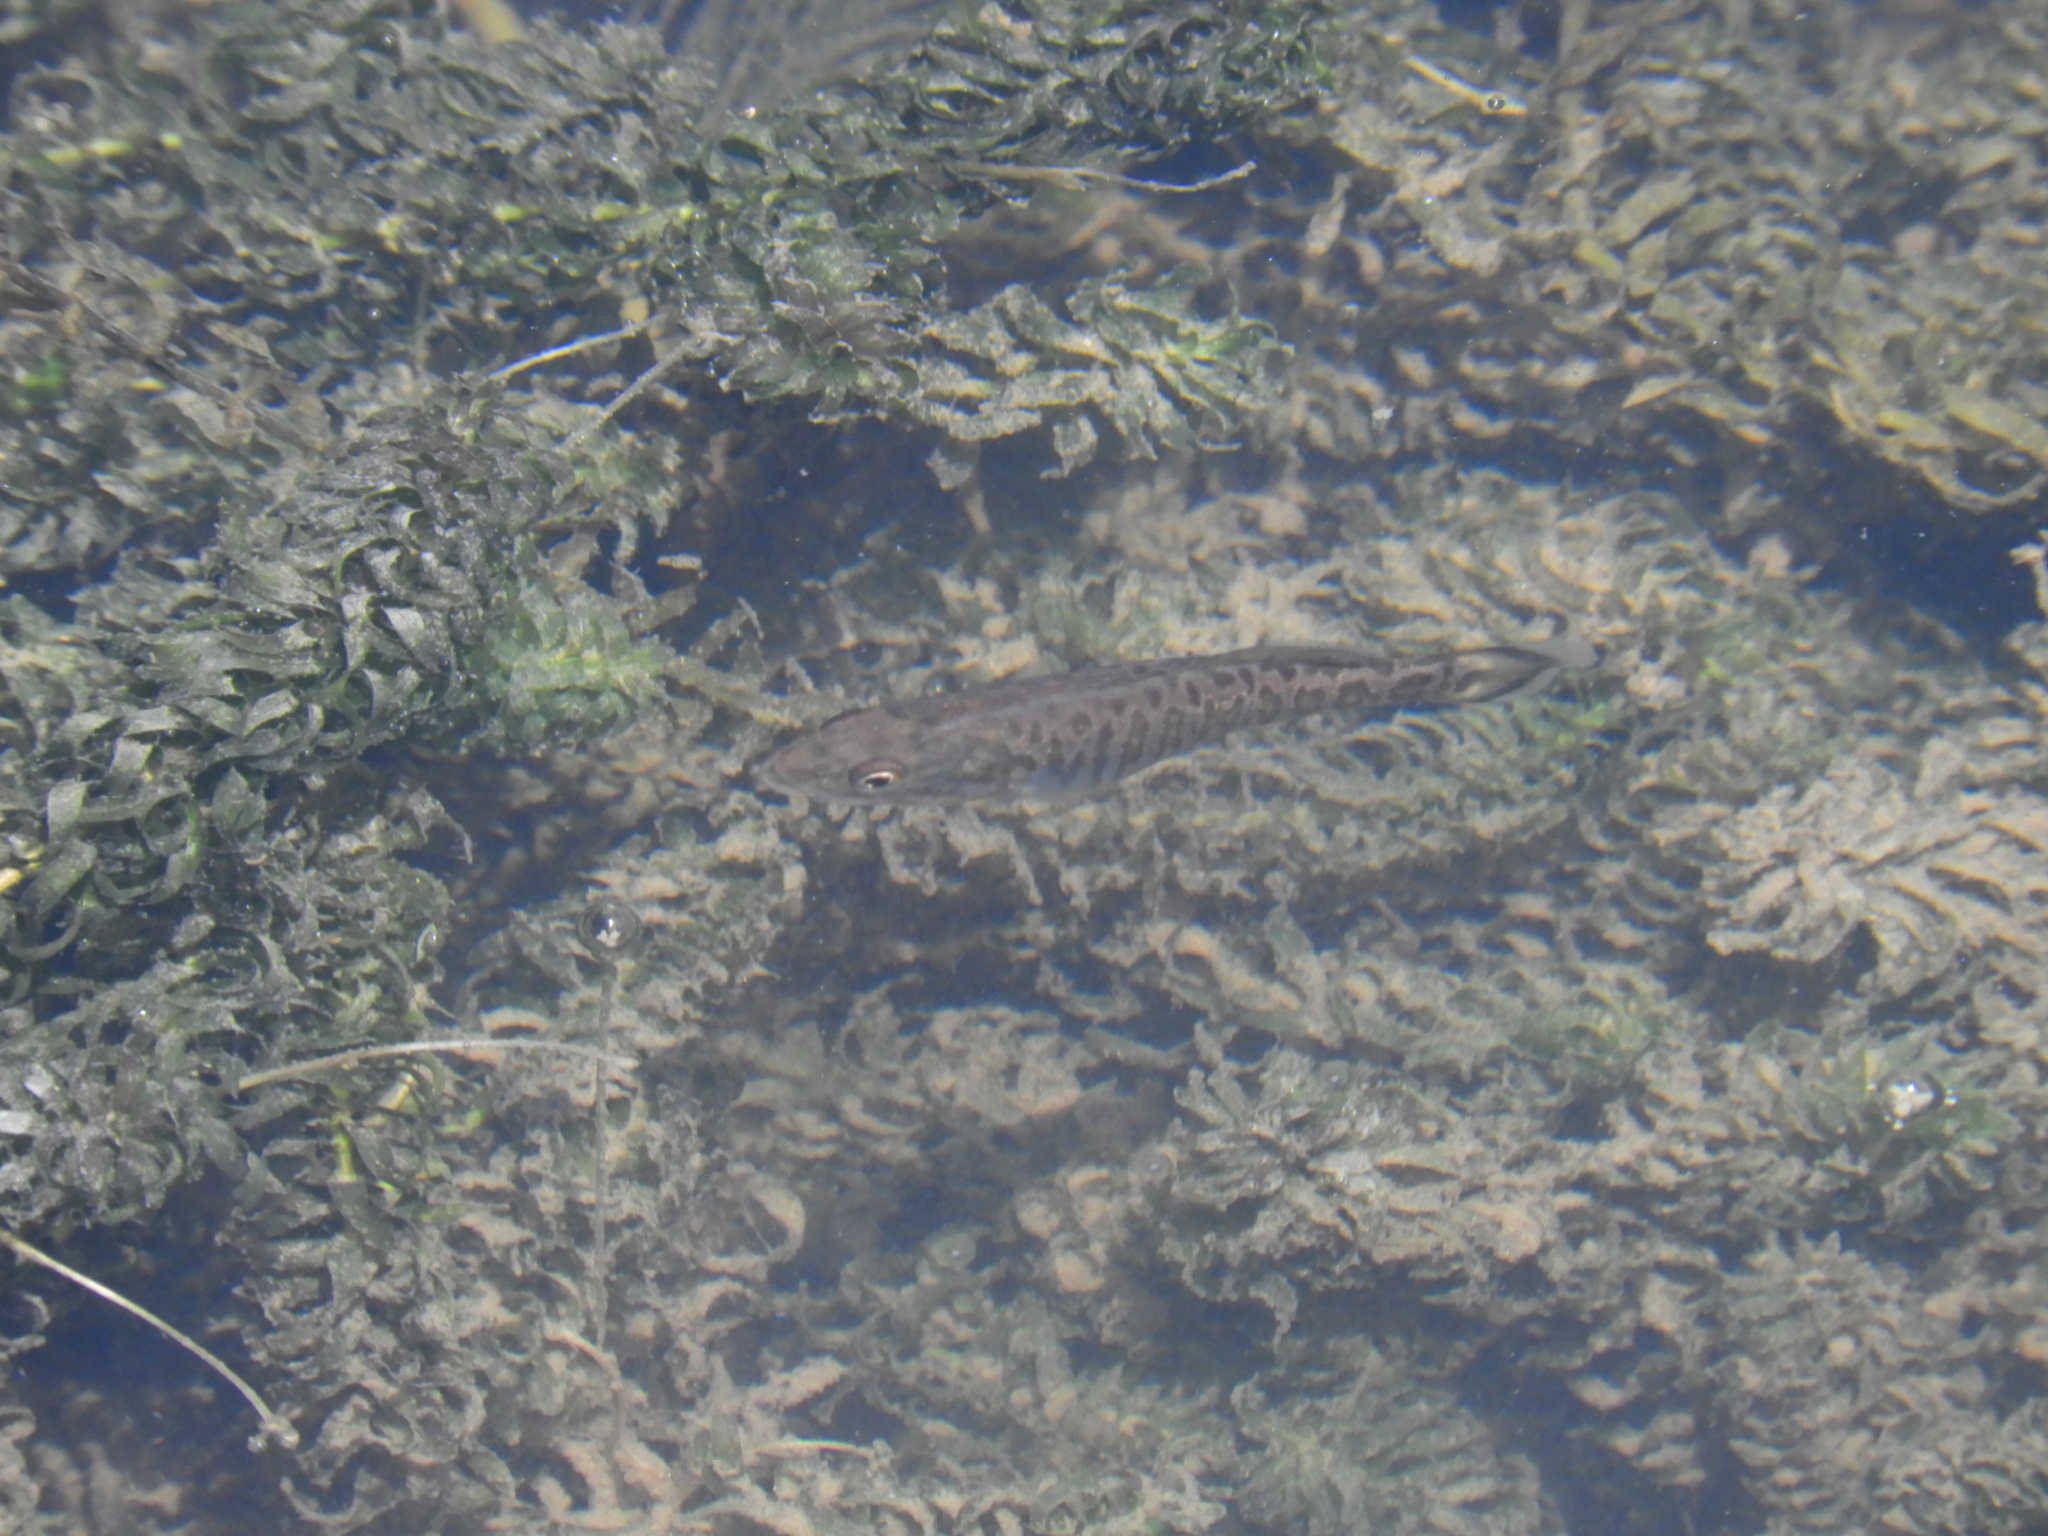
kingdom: Animalia
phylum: Chordata
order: Perciformes
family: Centrarchidae
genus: Micropterus
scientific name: Micropterus dolomieu
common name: Smallmouth bass
